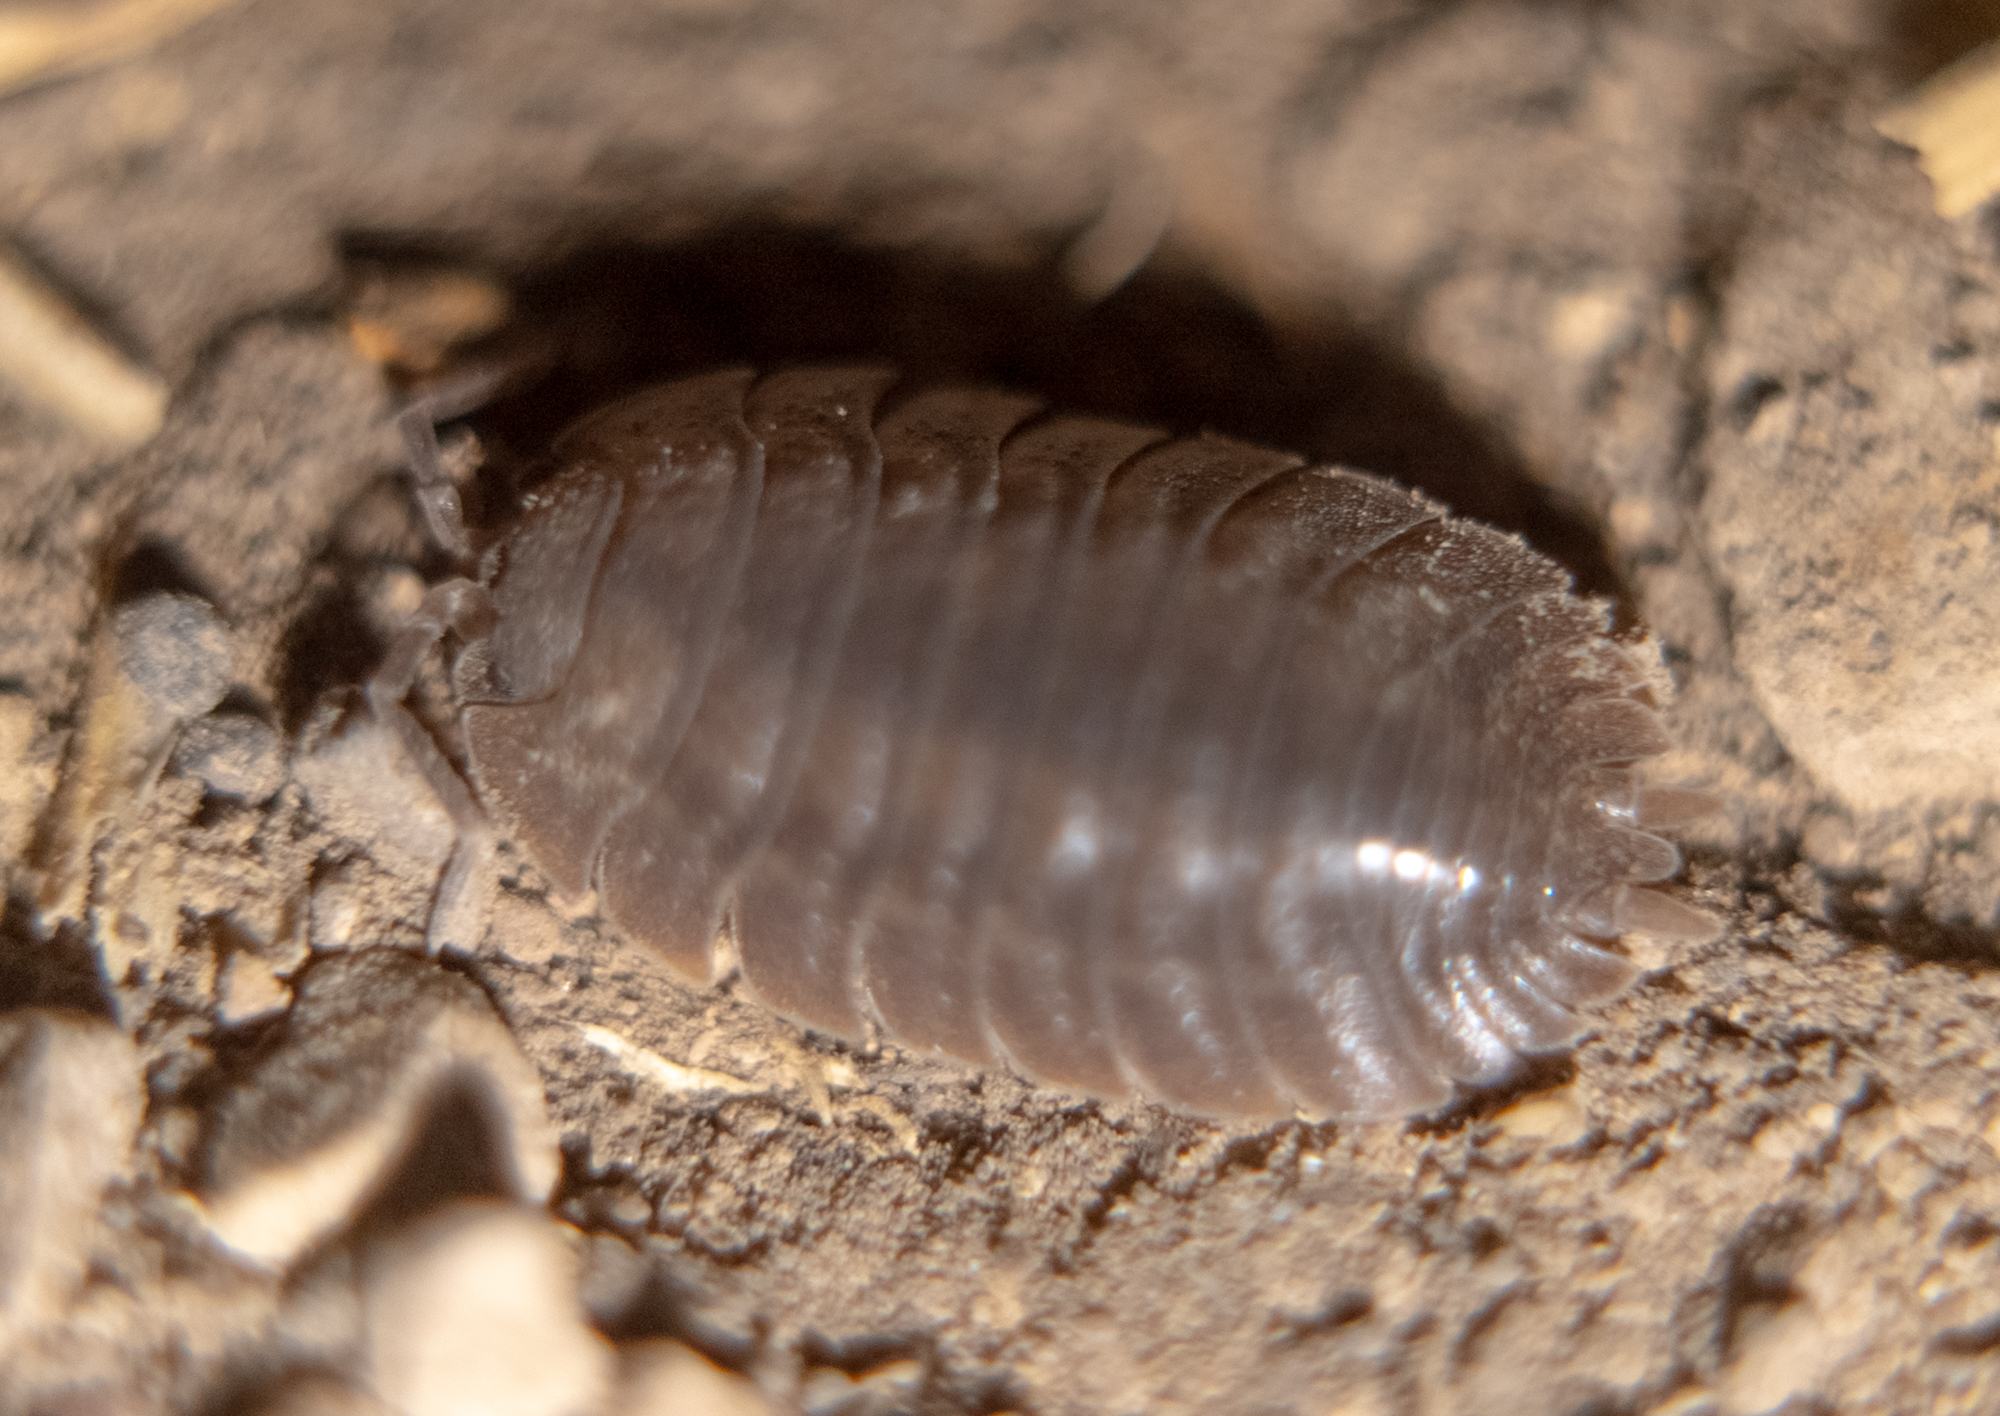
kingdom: Animalia
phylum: Arthropoda
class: Malacostraca
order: Isopoda
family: Porcellionidae
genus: Porcellio
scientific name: Porcellio dilatatus
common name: Isopod
